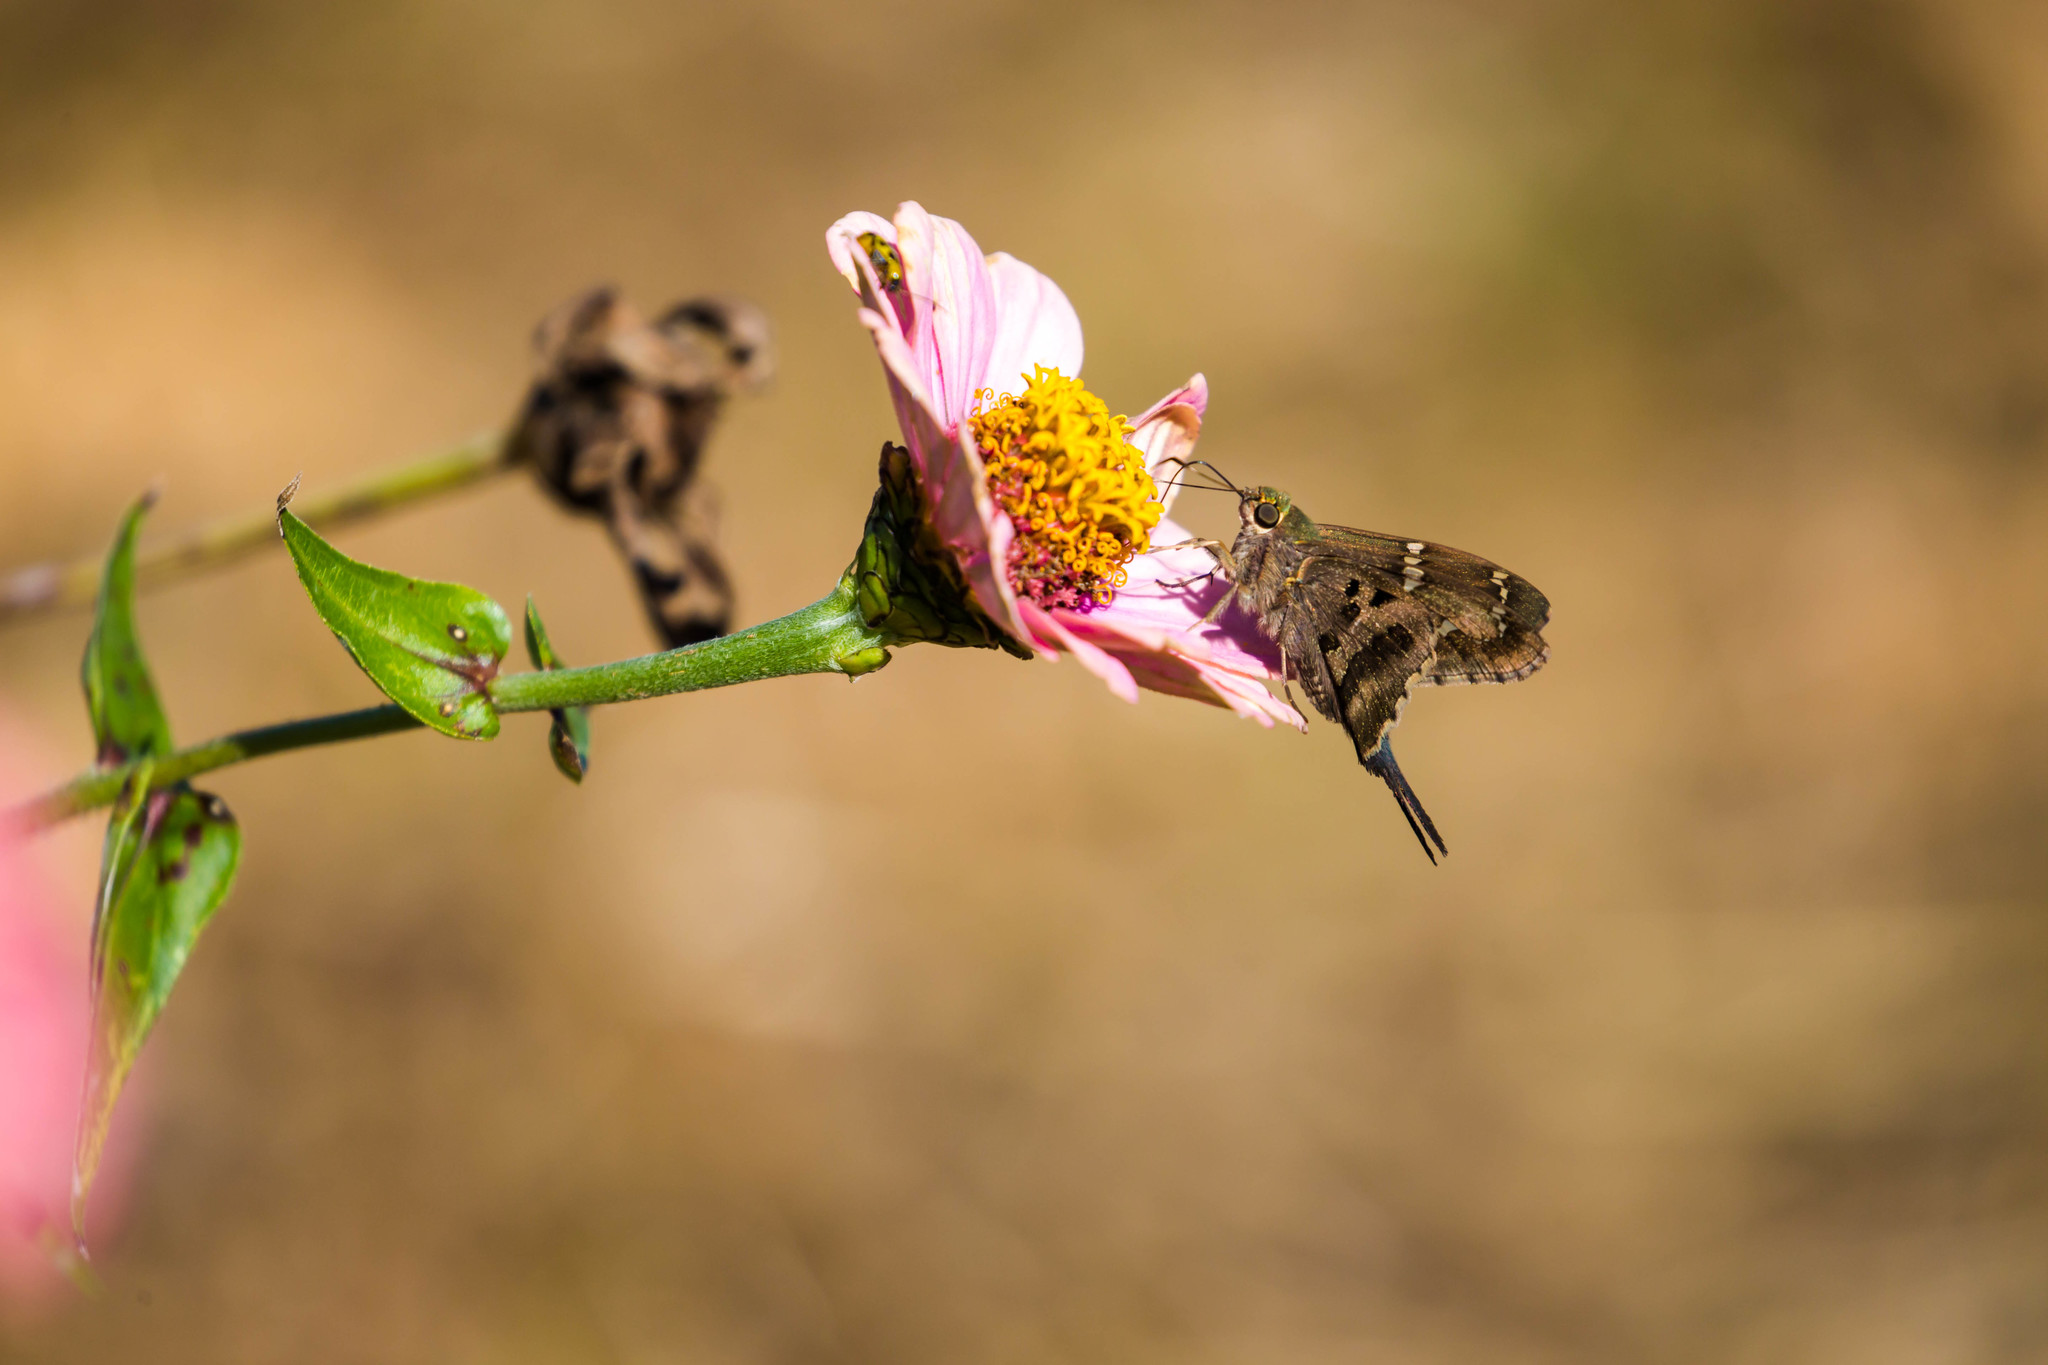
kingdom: Animalia
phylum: Arthropoda
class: Insecta
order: Lepidoptera
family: Hesperiidae
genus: Urbanus
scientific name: Urbanus proteus
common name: Long-tailed skipper
